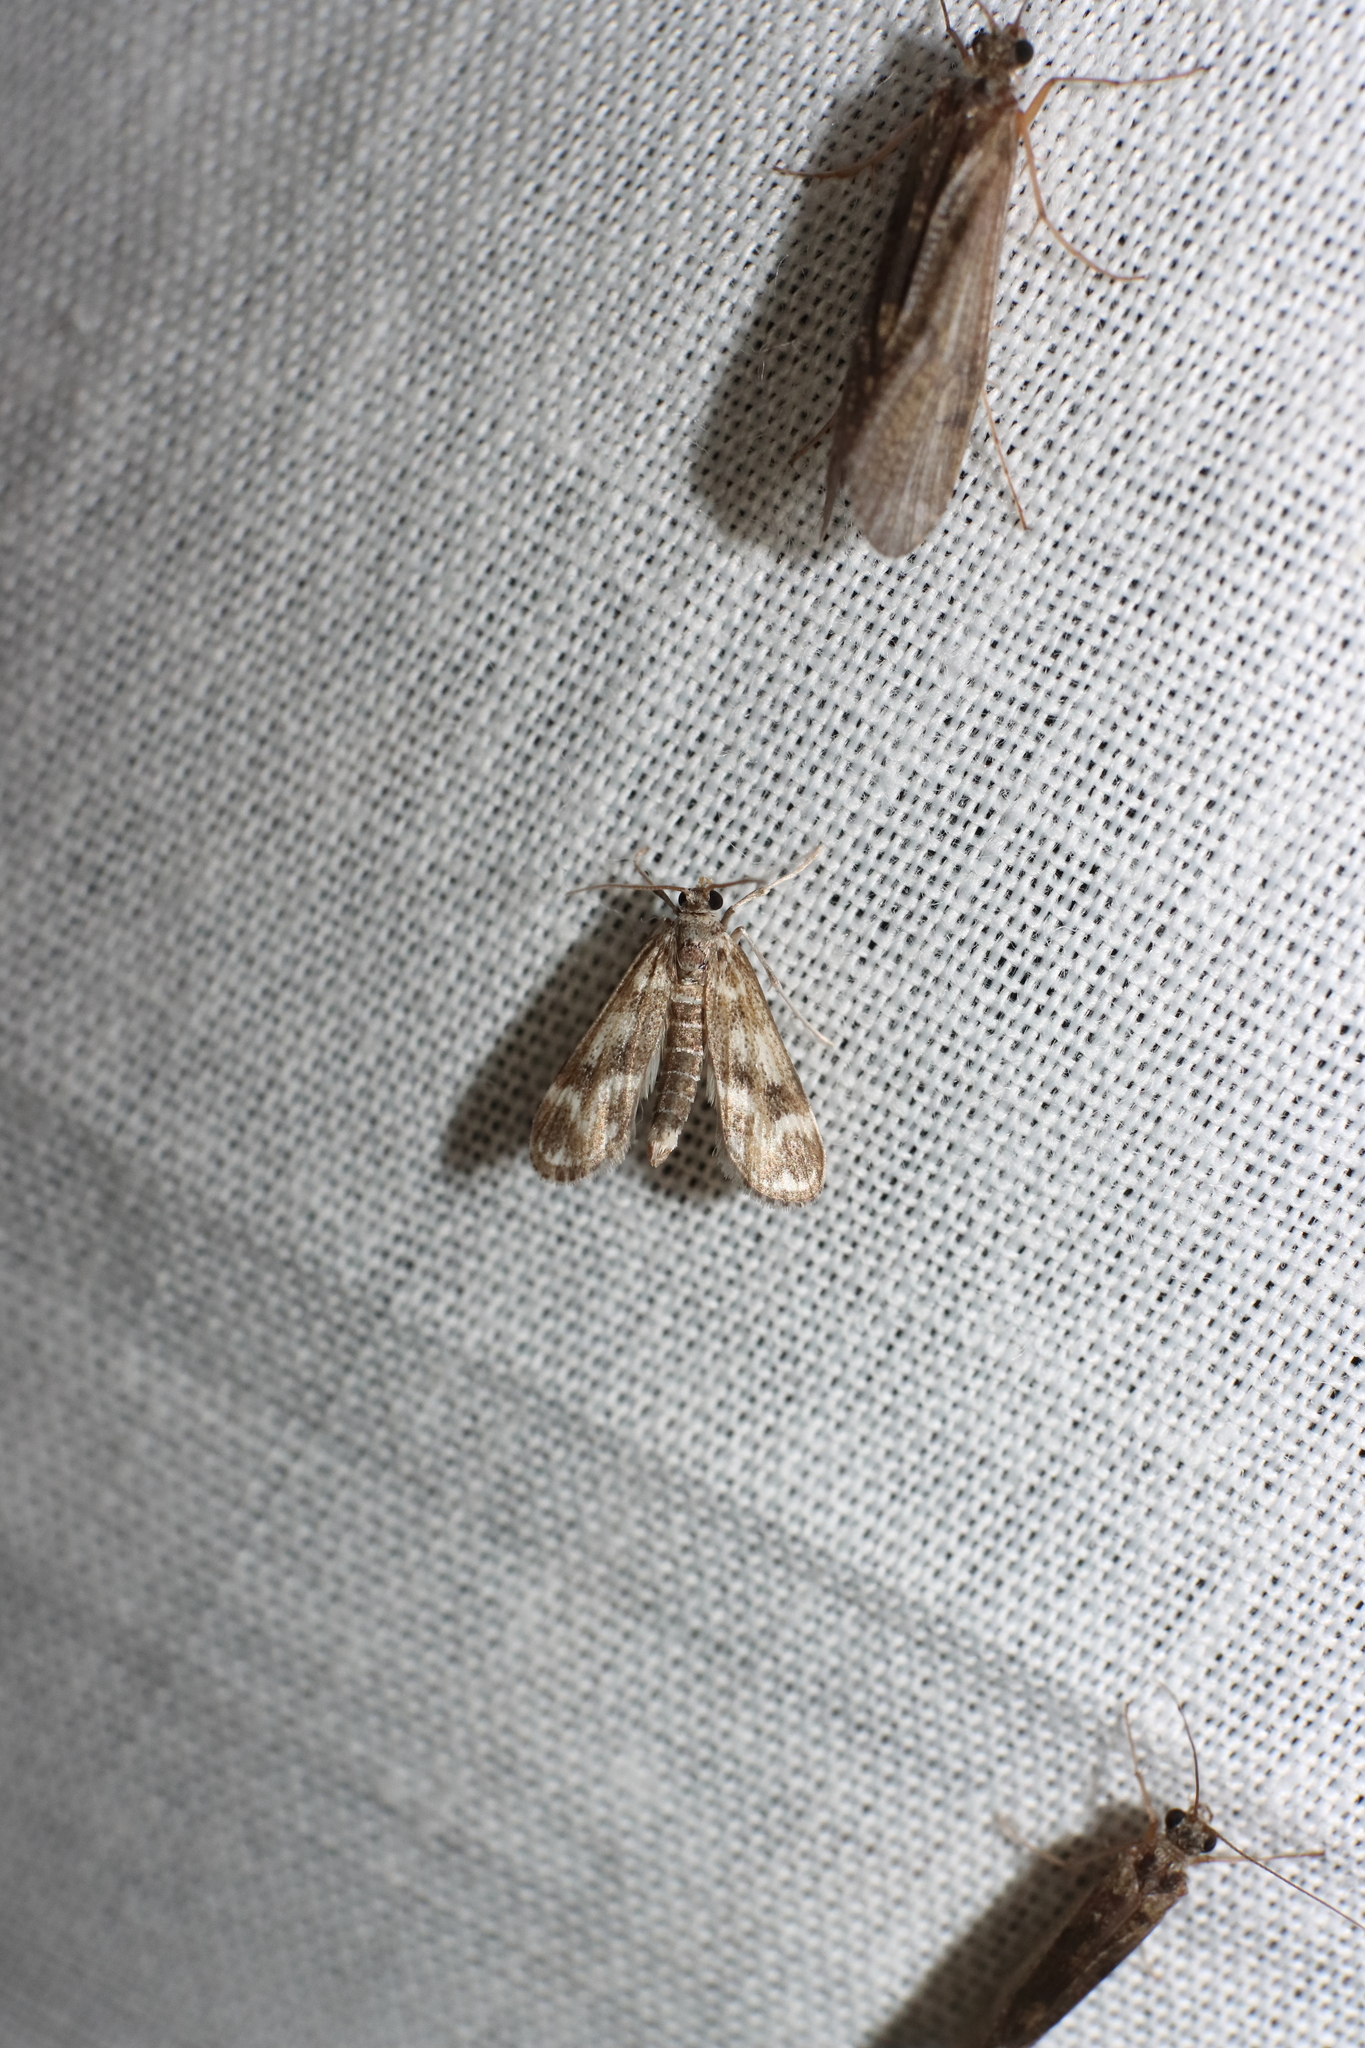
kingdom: Animalia
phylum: Arthropoda
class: Insecta
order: Lepidoptera
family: Crambidae
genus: Hygraula
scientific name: Hygraula nitens
